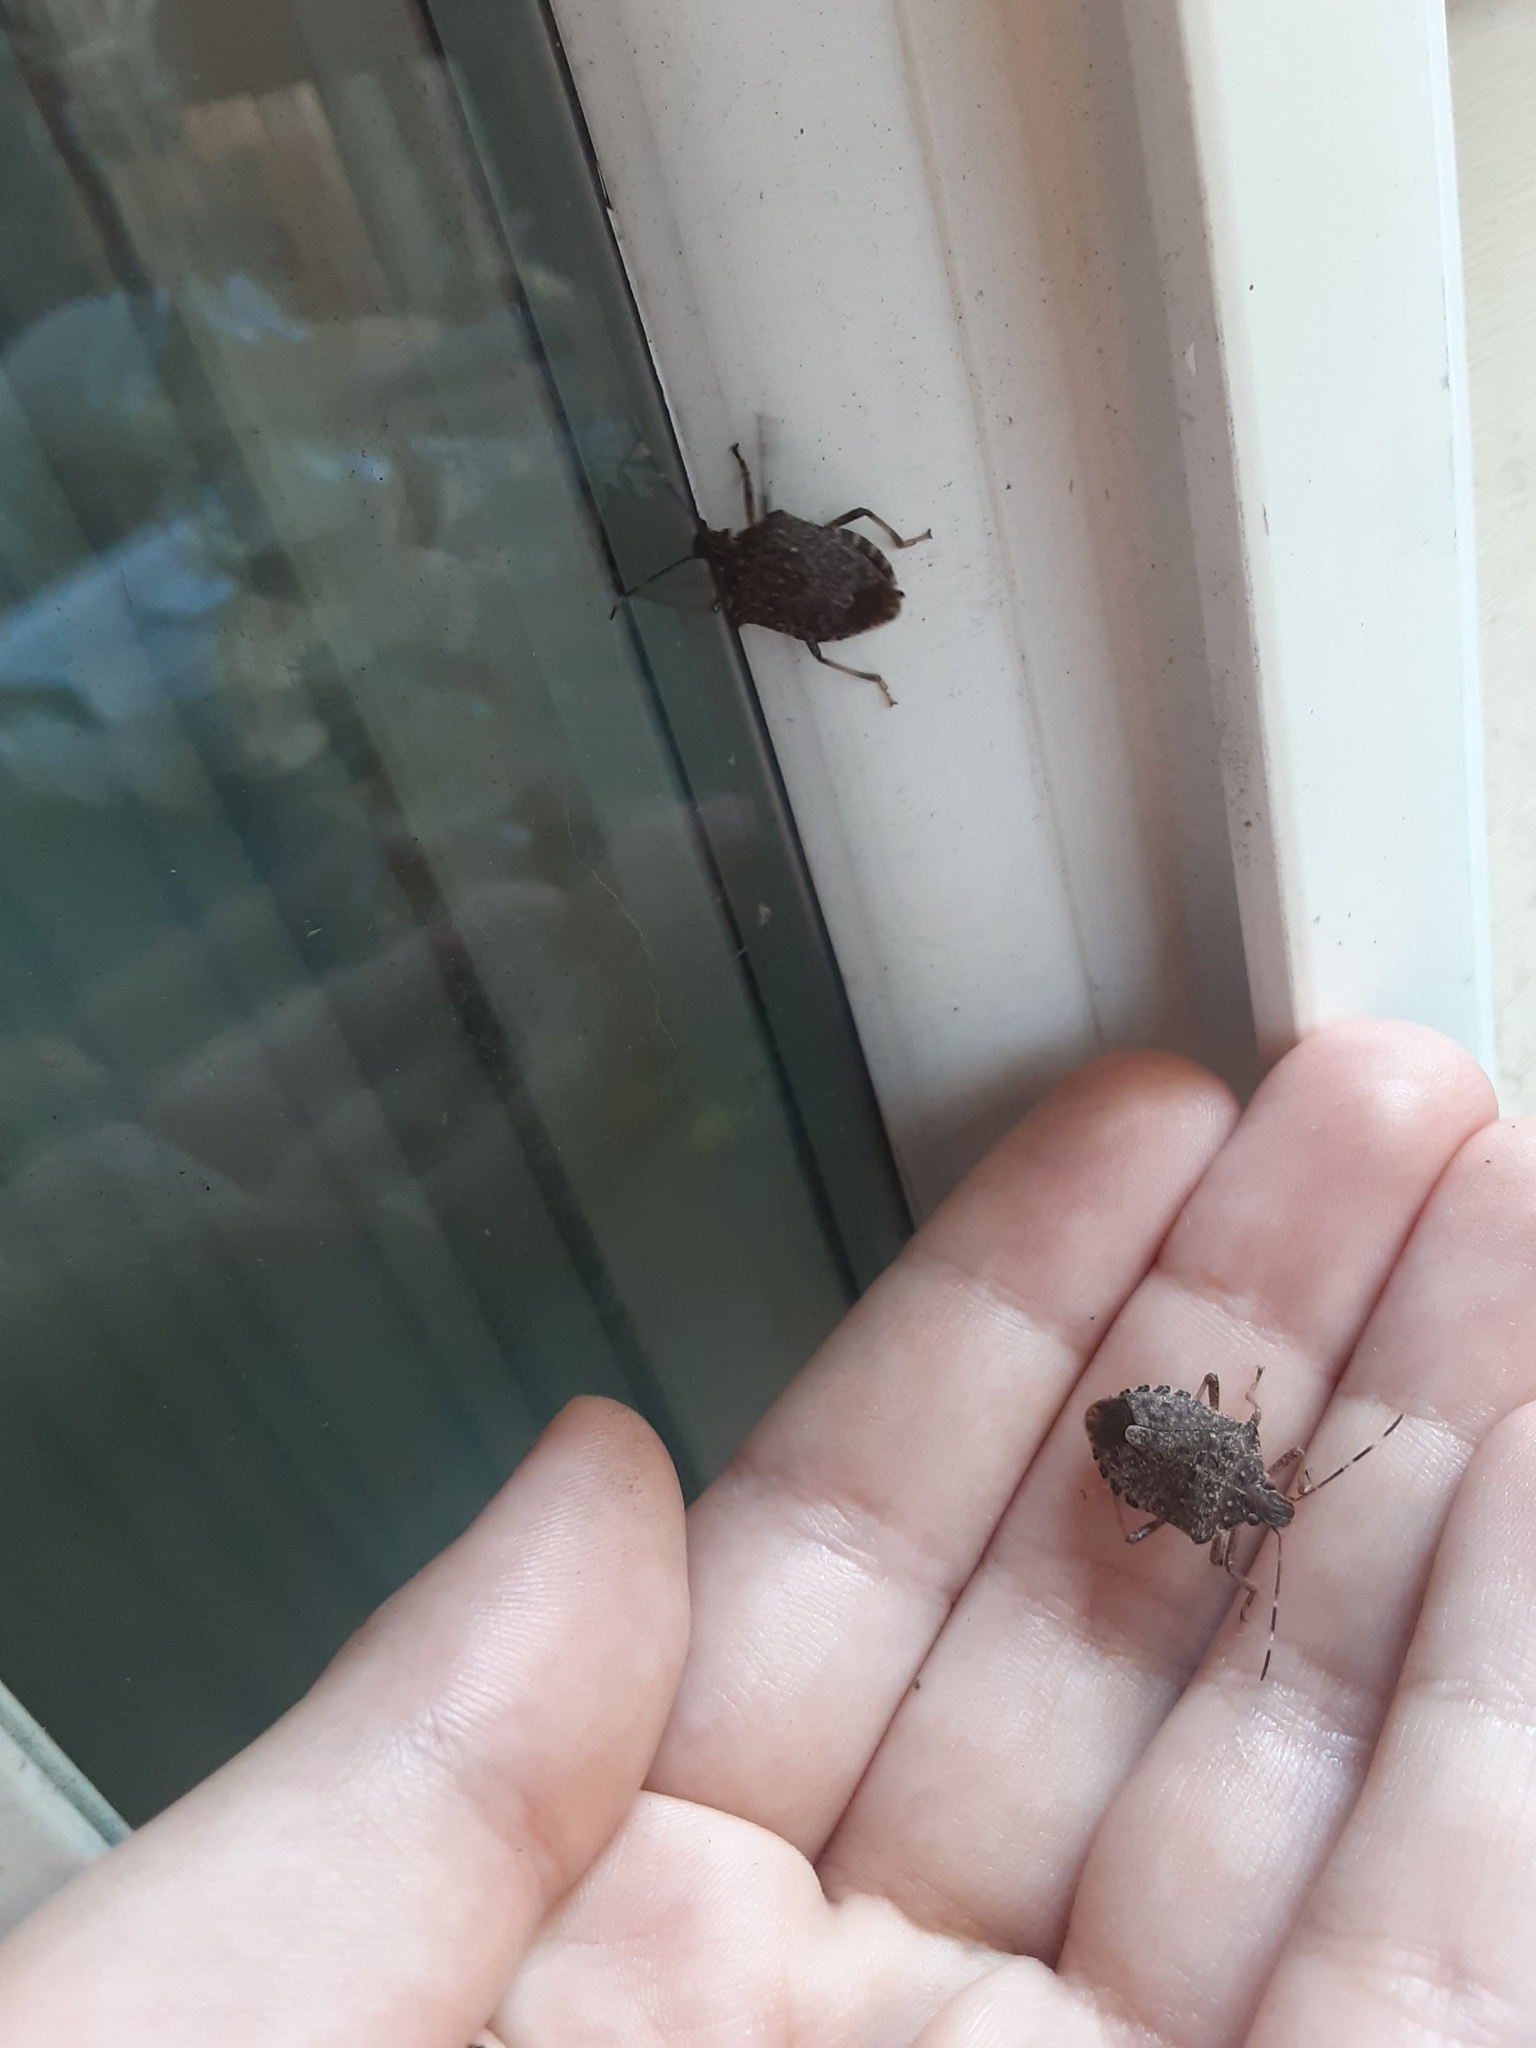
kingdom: Animalia
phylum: Arthropoda
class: Insecta
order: Hemiptera
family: Pentatomidae
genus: Halyomorpha
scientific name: Halyomorpha halys
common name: Brown marmorated stink bug
